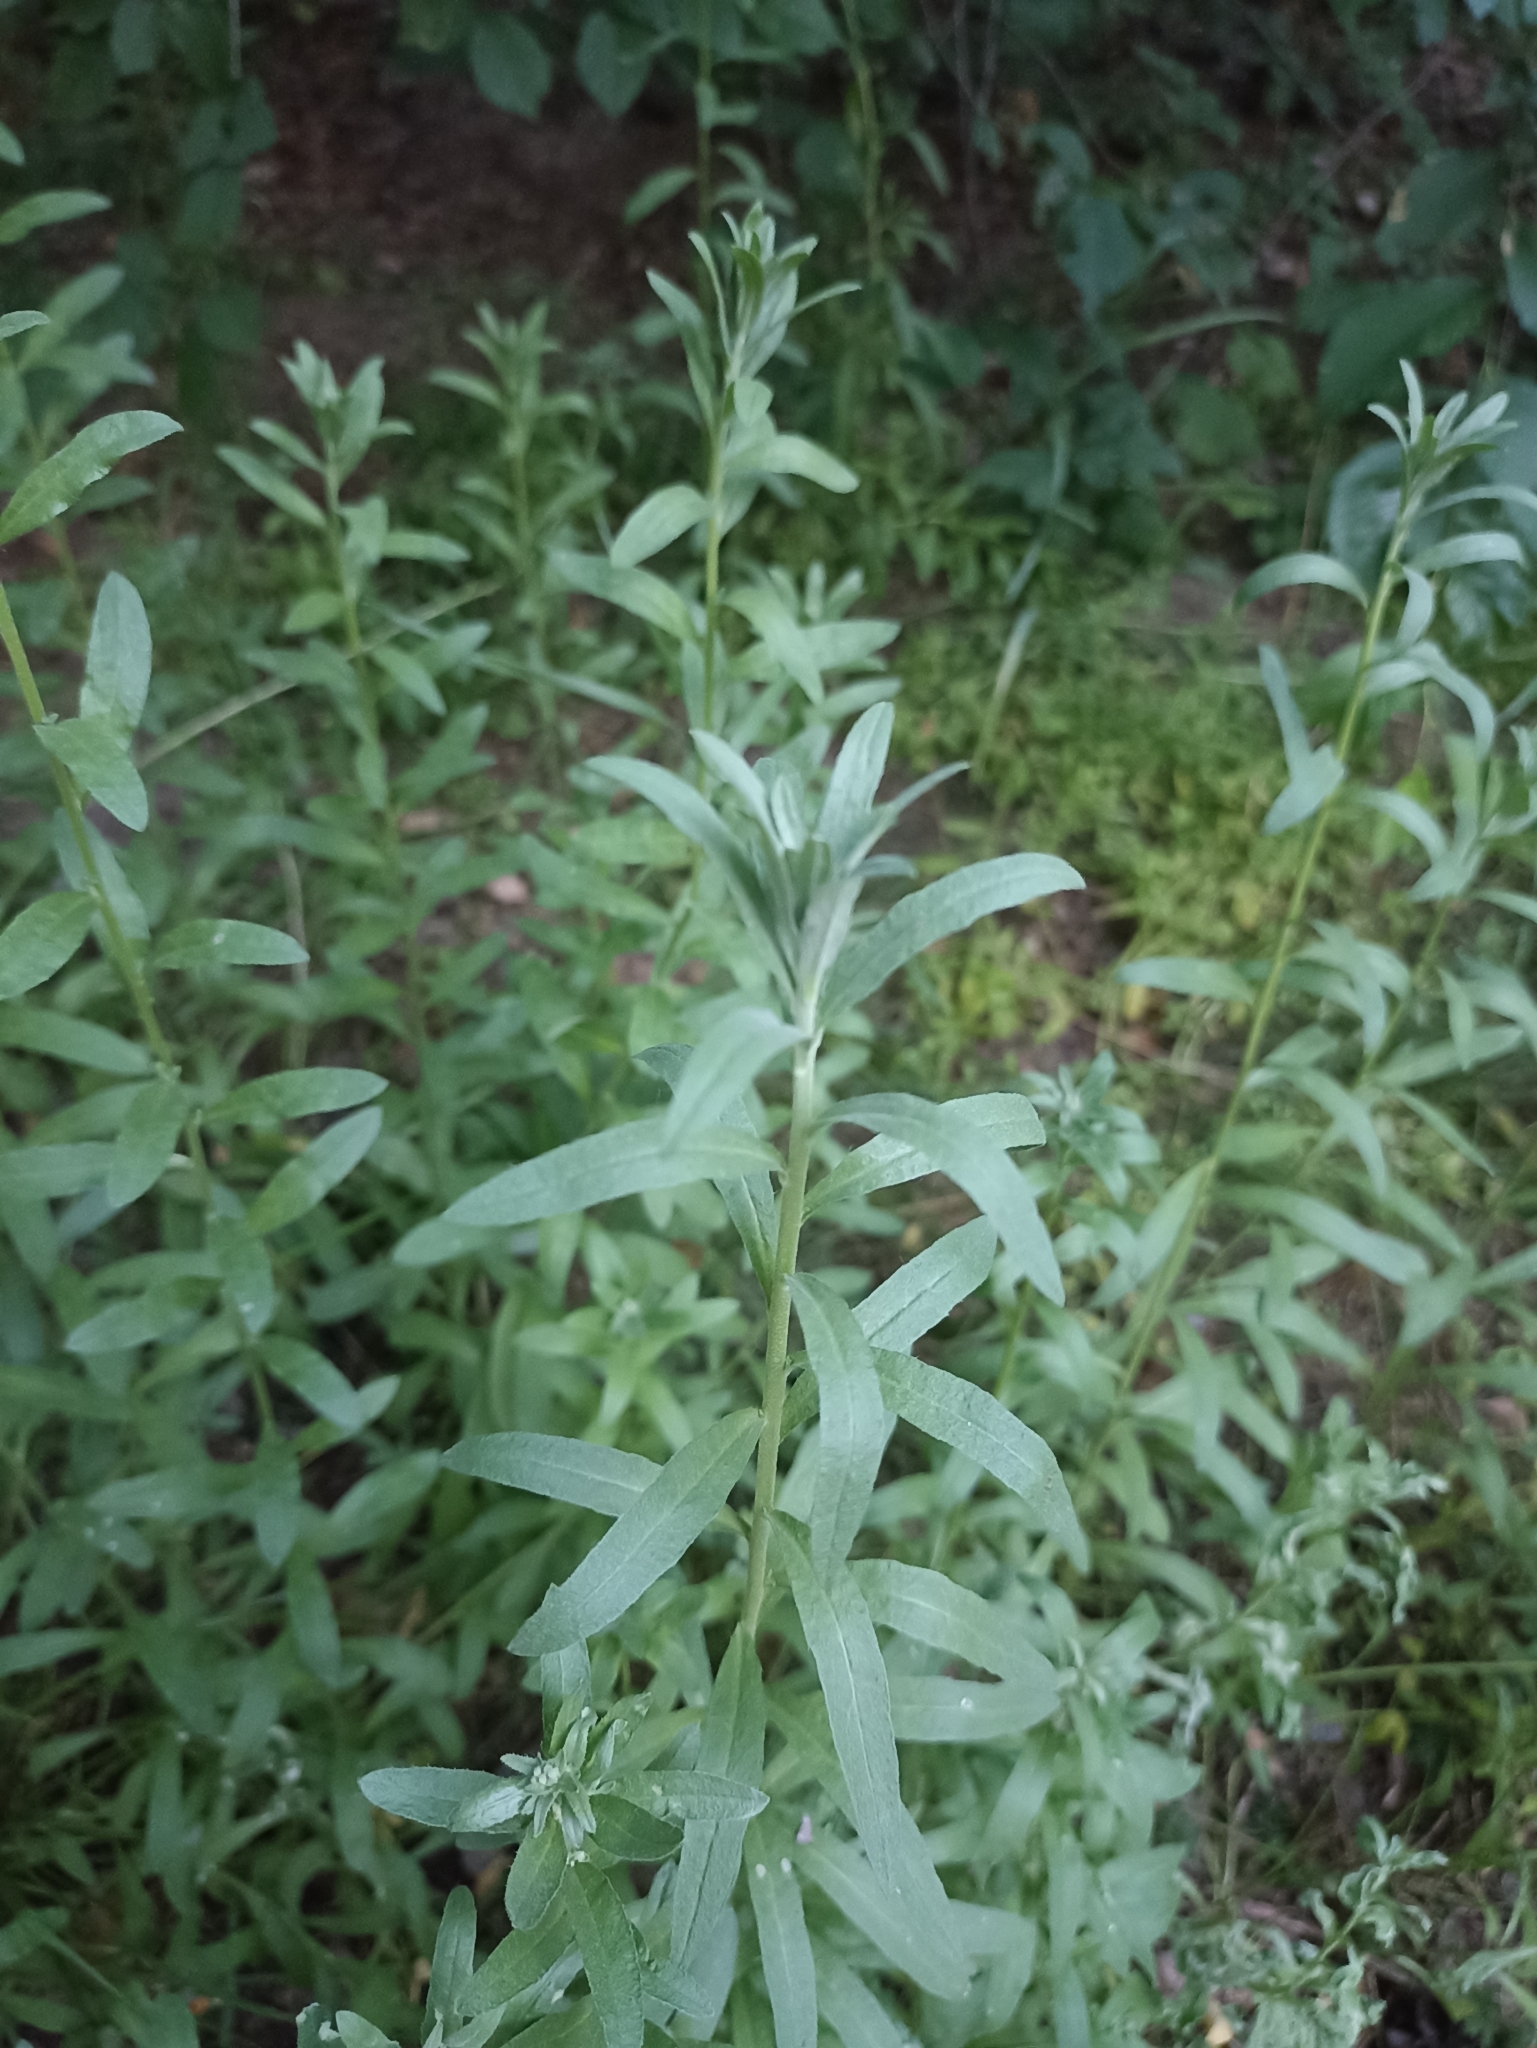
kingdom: Plantae
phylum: Tracheophyta
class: Magnoliopsida
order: Brassicales
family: Brassicaceae
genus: Berteroa
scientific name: Berteroa incana
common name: Hoary alison
